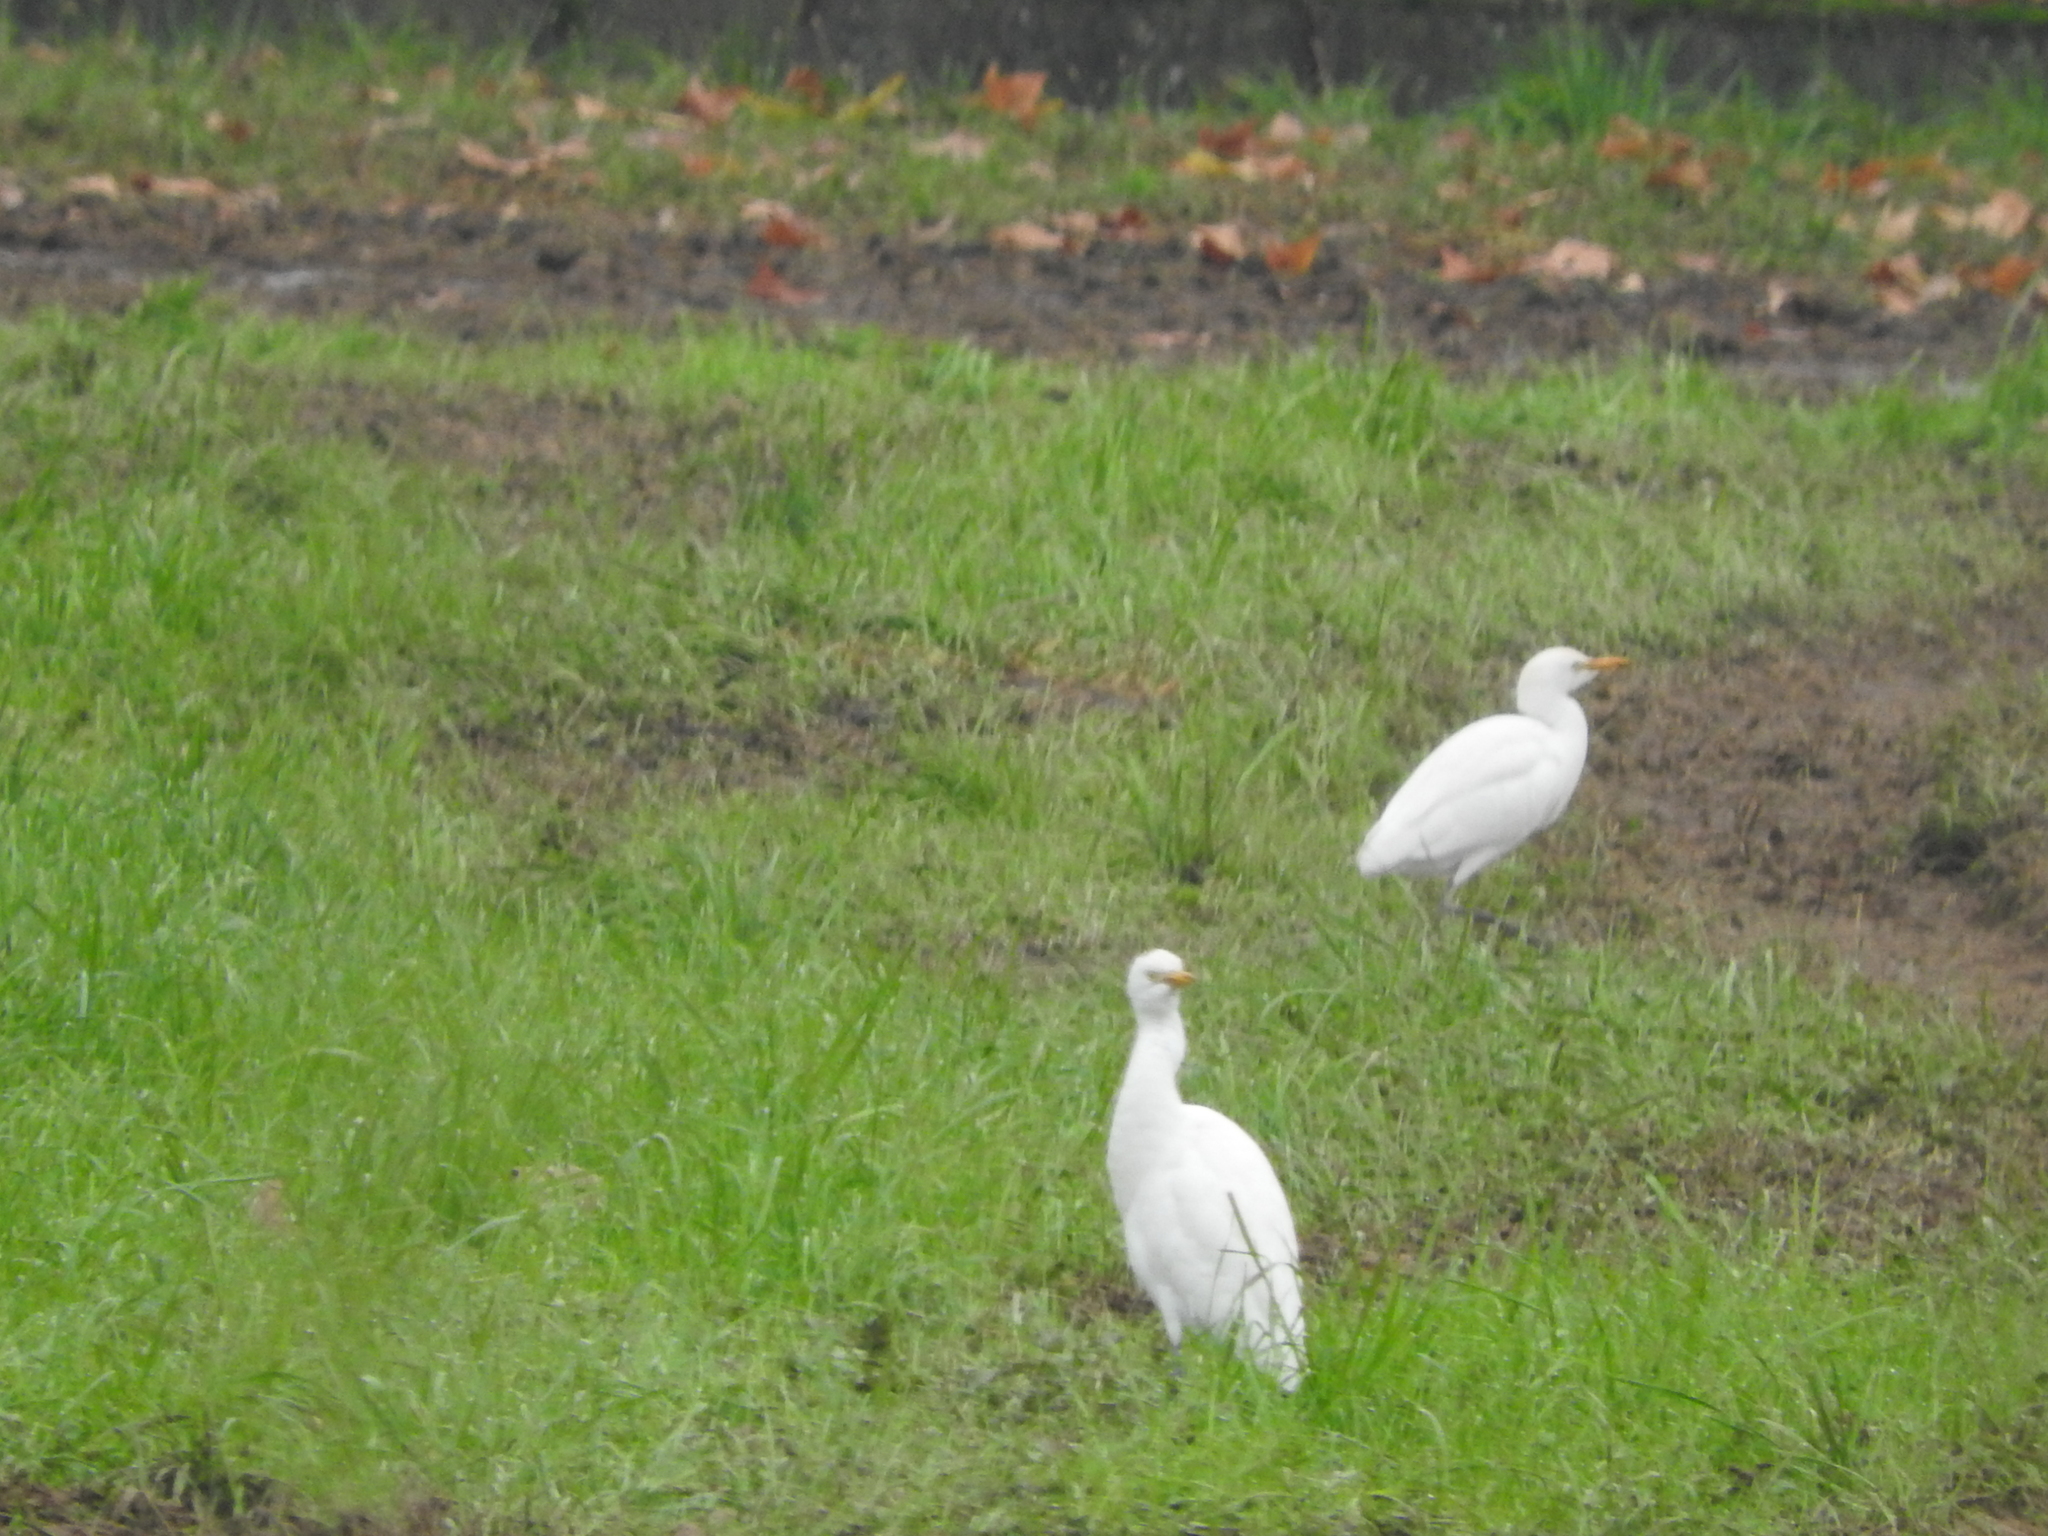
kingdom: Animalia
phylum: Chordata
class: Aves
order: Pelecaniformes
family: Ardeidae
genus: Bubulcus
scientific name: Bubulcus ibis
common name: Cattle egret
